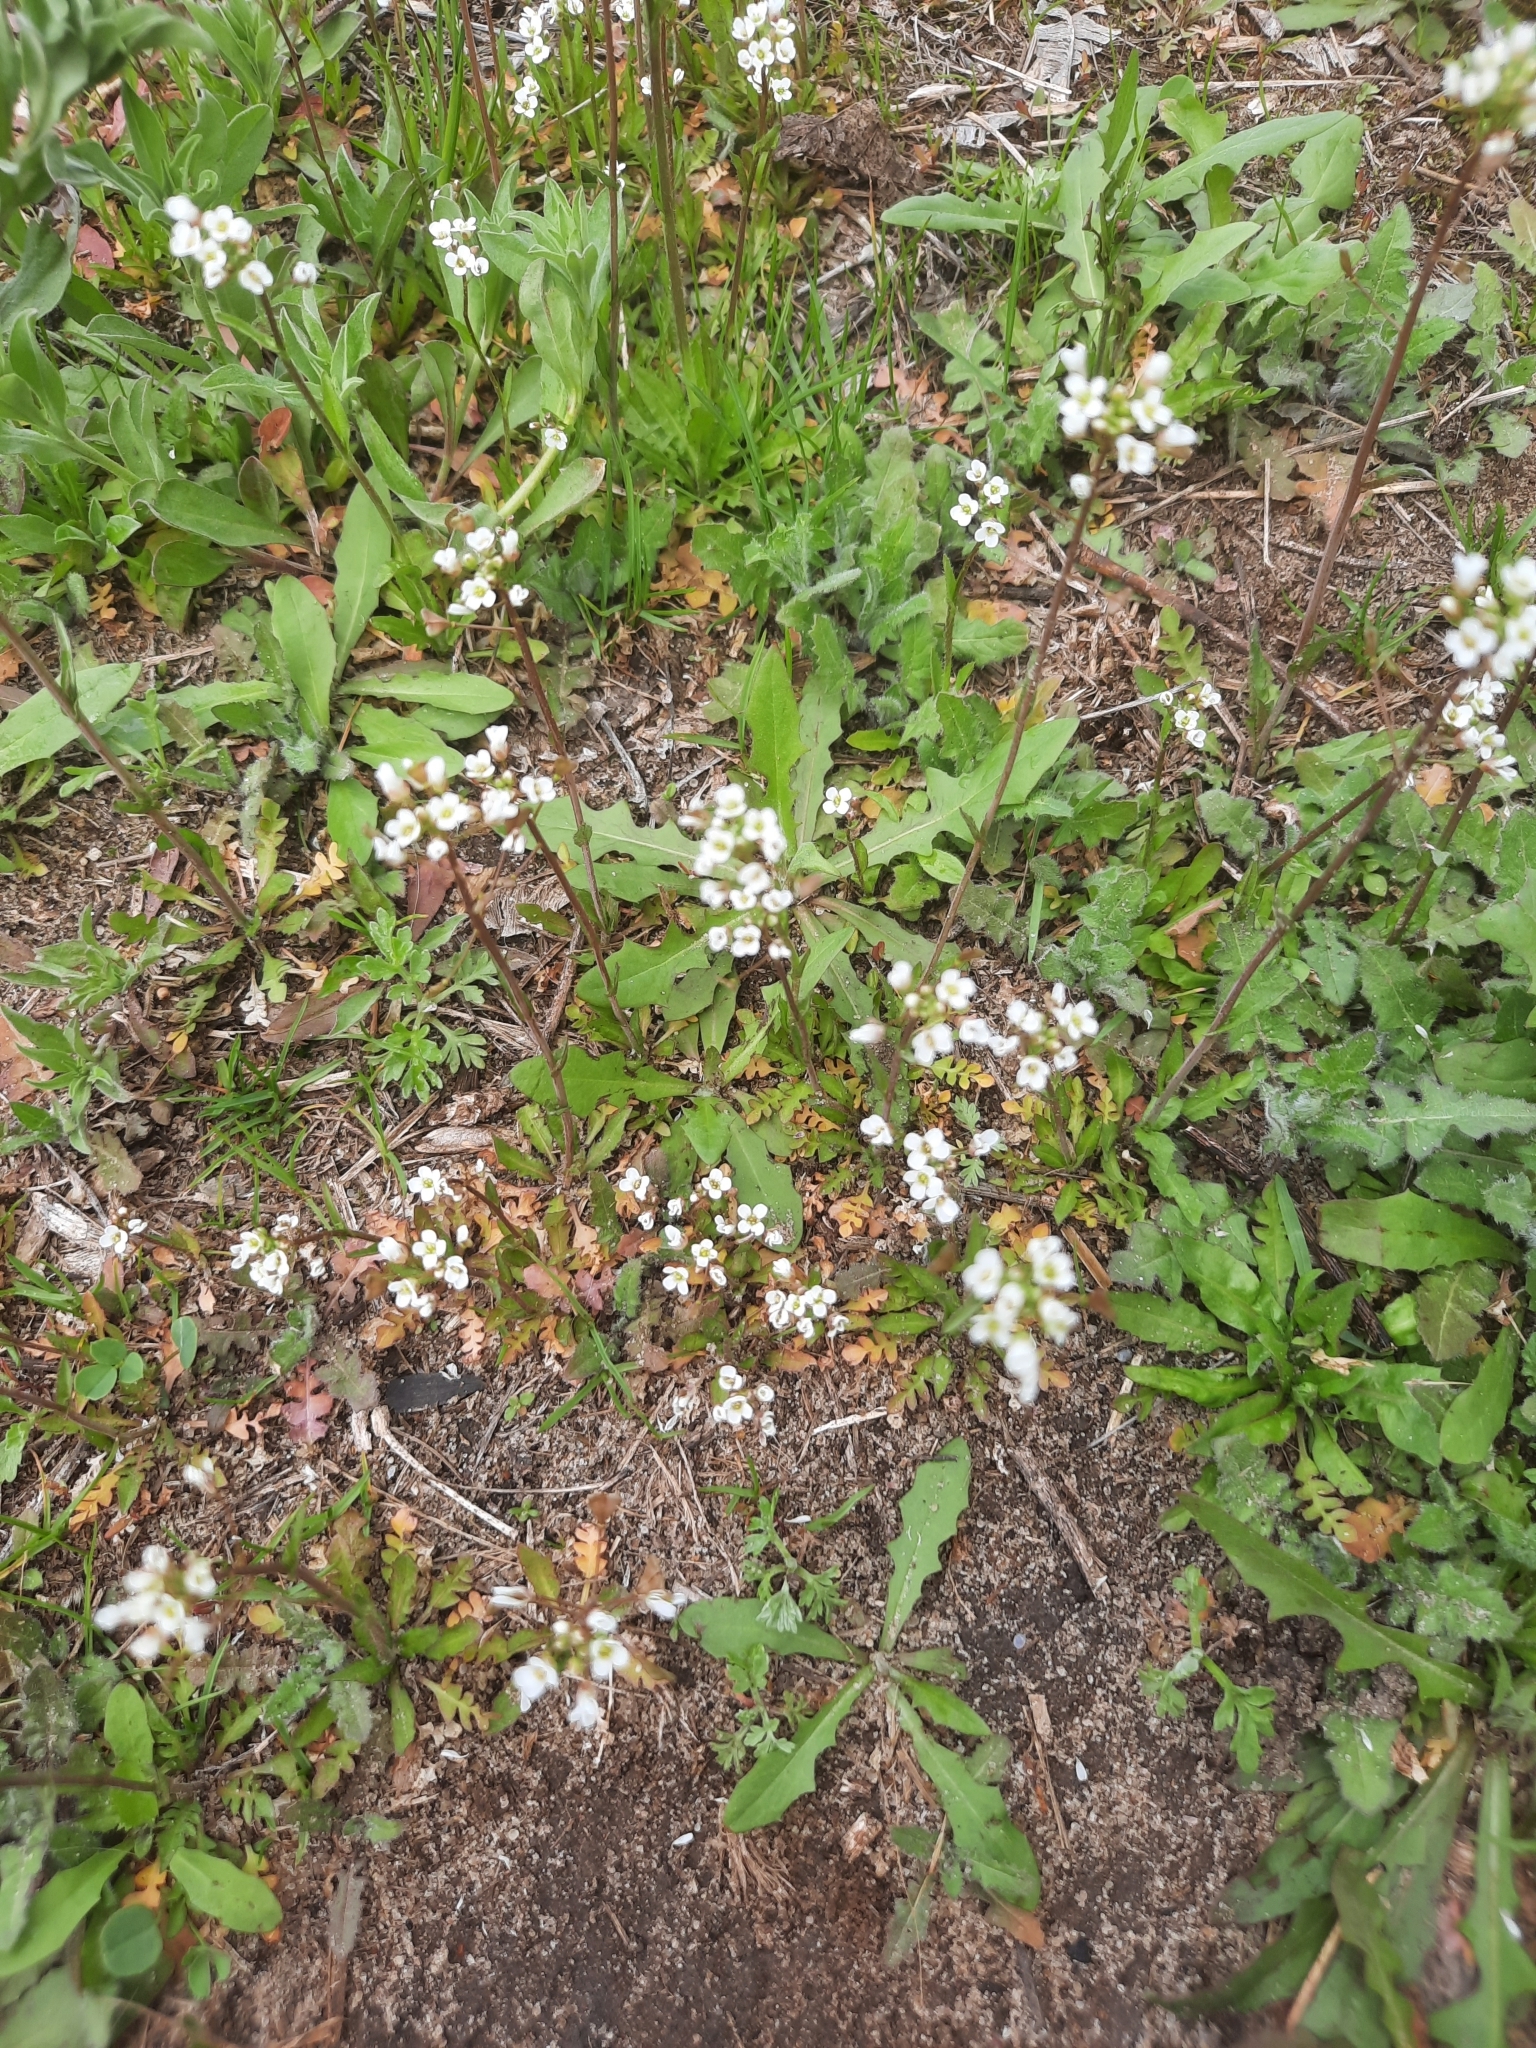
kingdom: Plantae
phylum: Tracheophyta
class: Magnoliopsida
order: Brassicales
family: Brassicaceae
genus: Capsella
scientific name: Capsella bursa-pastoris
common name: Shepherd's purse
